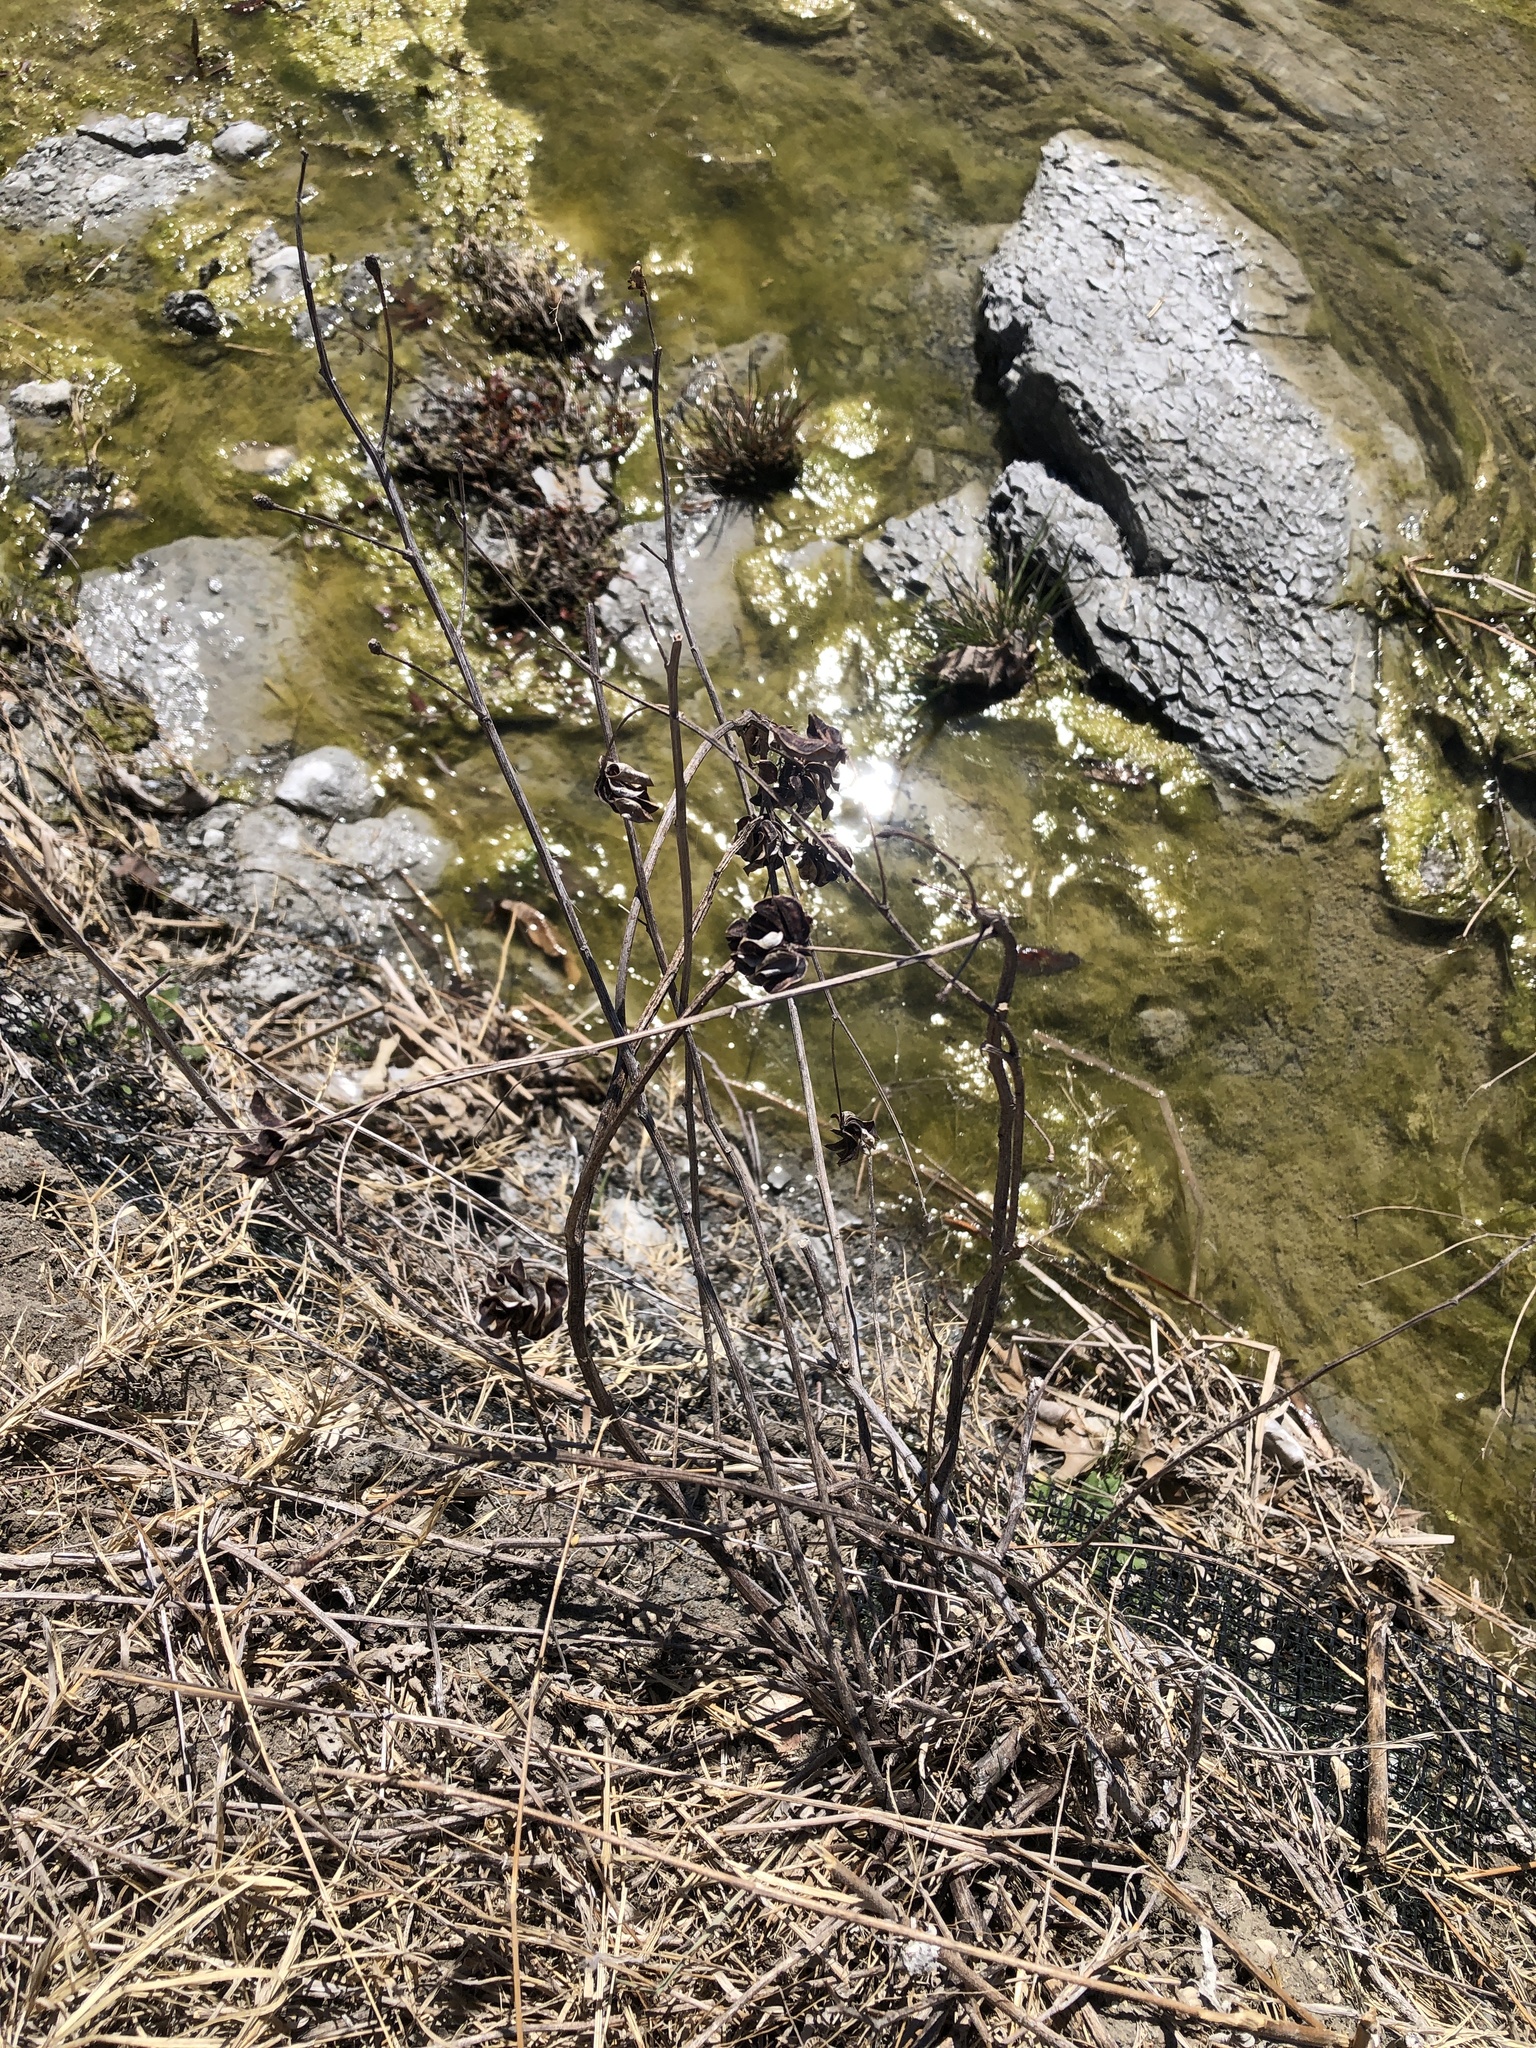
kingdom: Plantae
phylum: Tracheophyta
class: Magnoliopsida
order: Fabales
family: Fabaceae
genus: Desmanthus
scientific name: Desmanthus illinoensis
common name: Illinois bundle-flower
